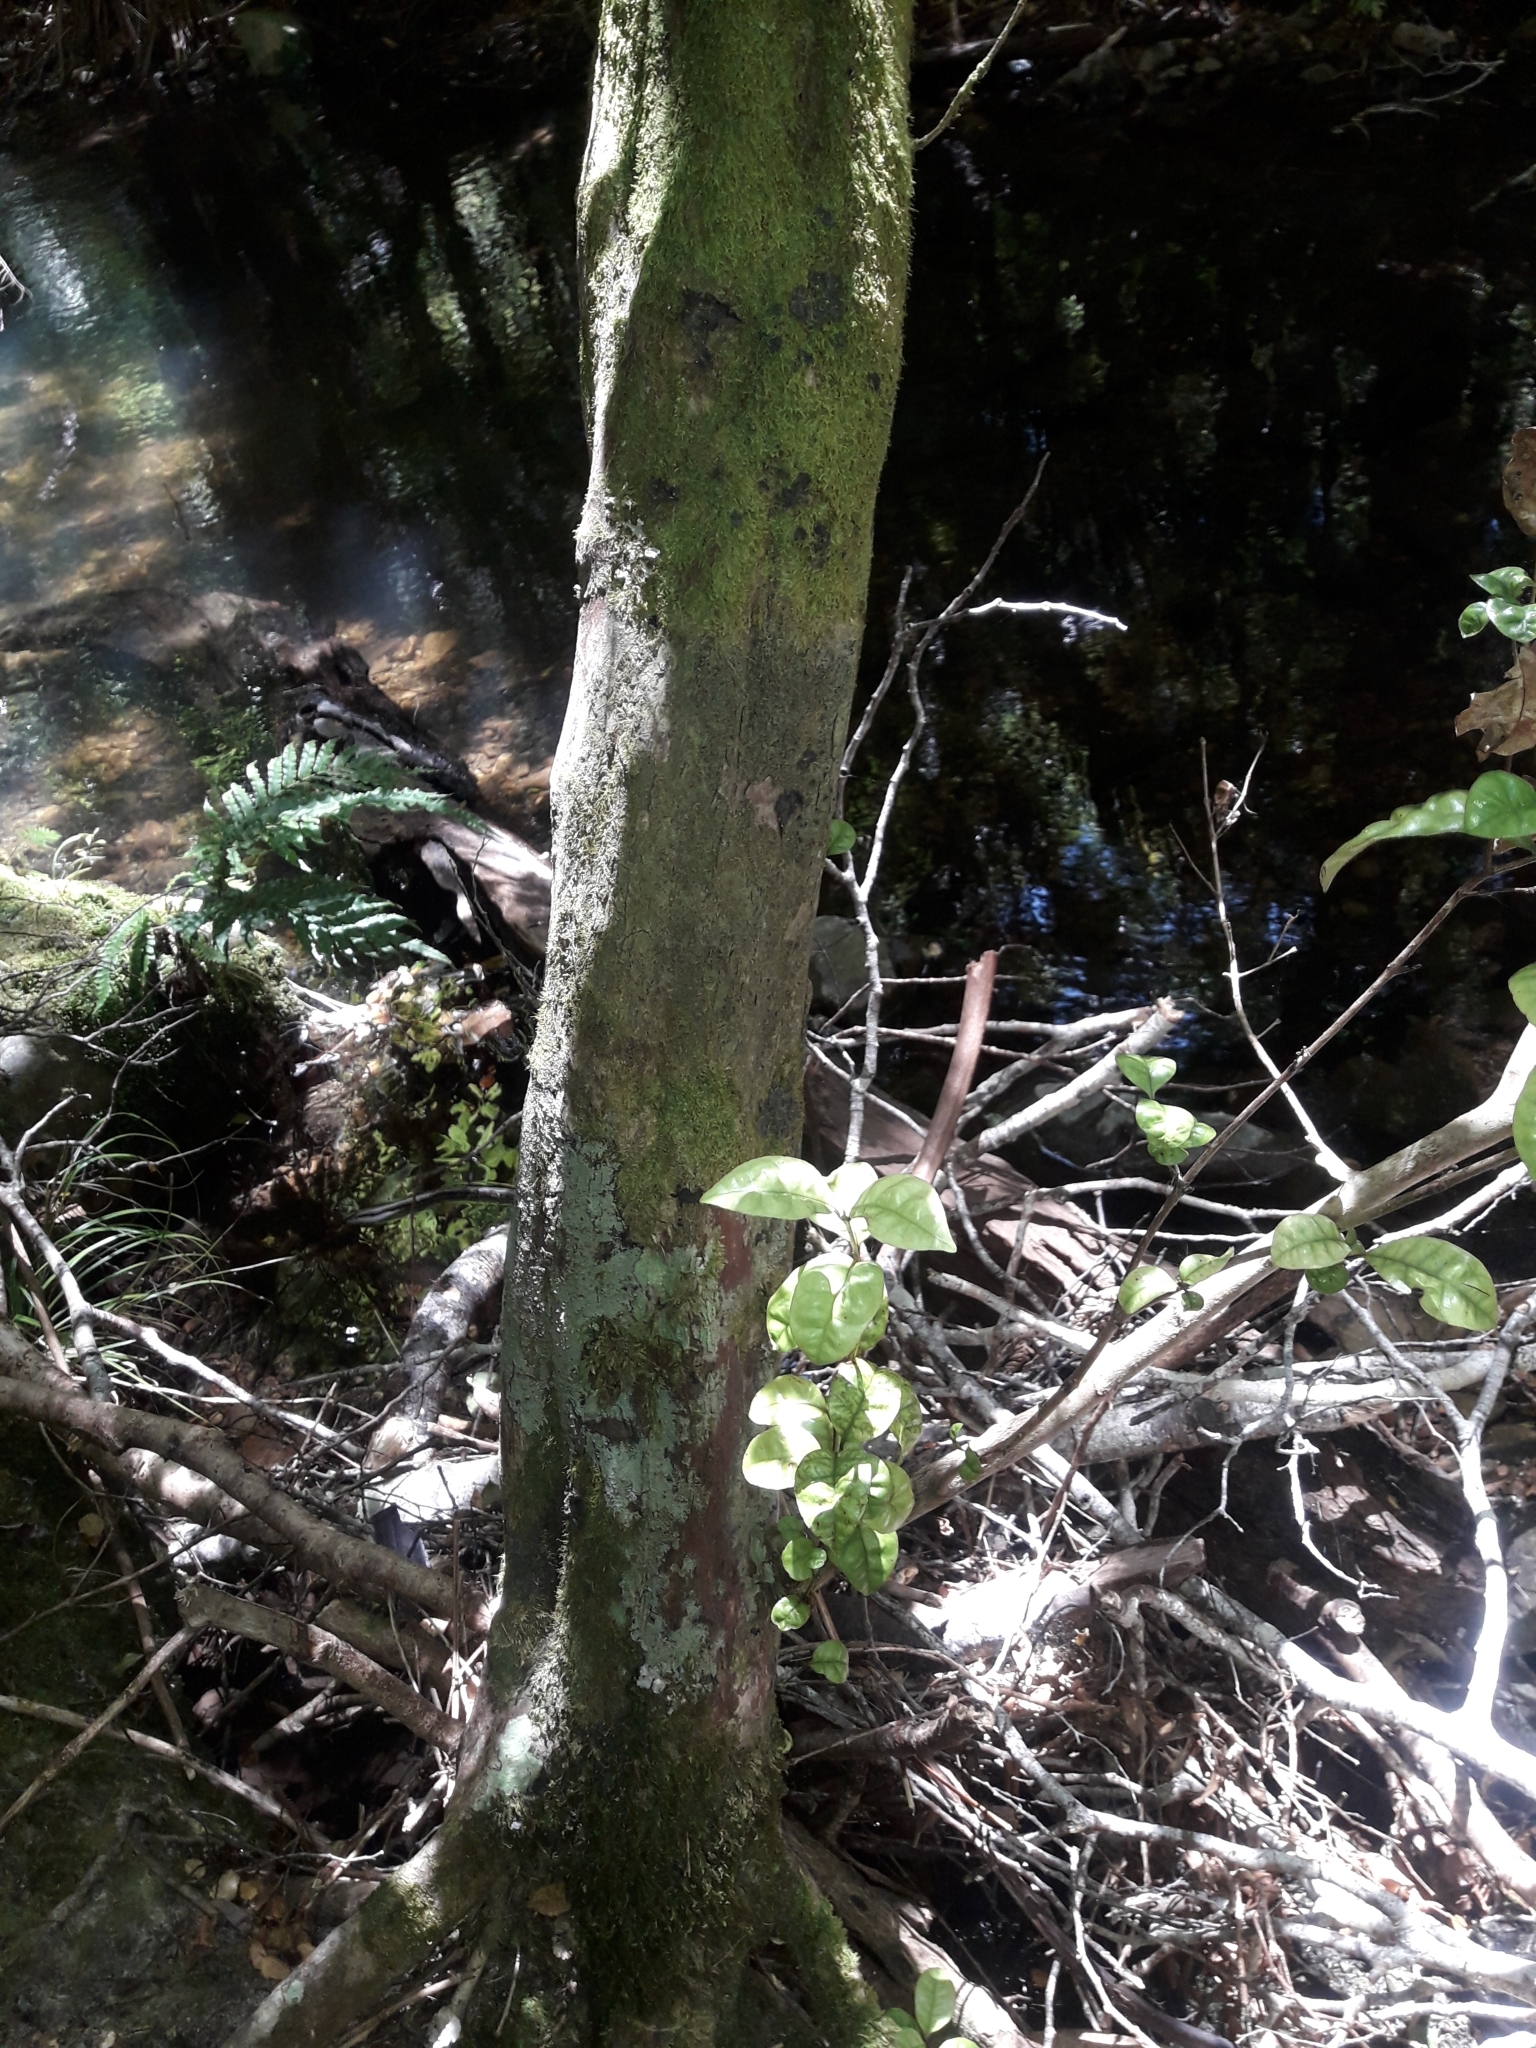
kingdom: Plantae
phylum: Tracheophyta
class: Magnoliopsida
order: Myrtales
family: Myrtaceae
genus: Lophomyrtus
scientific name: Lophomyrtus bullata
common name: Rama rama
